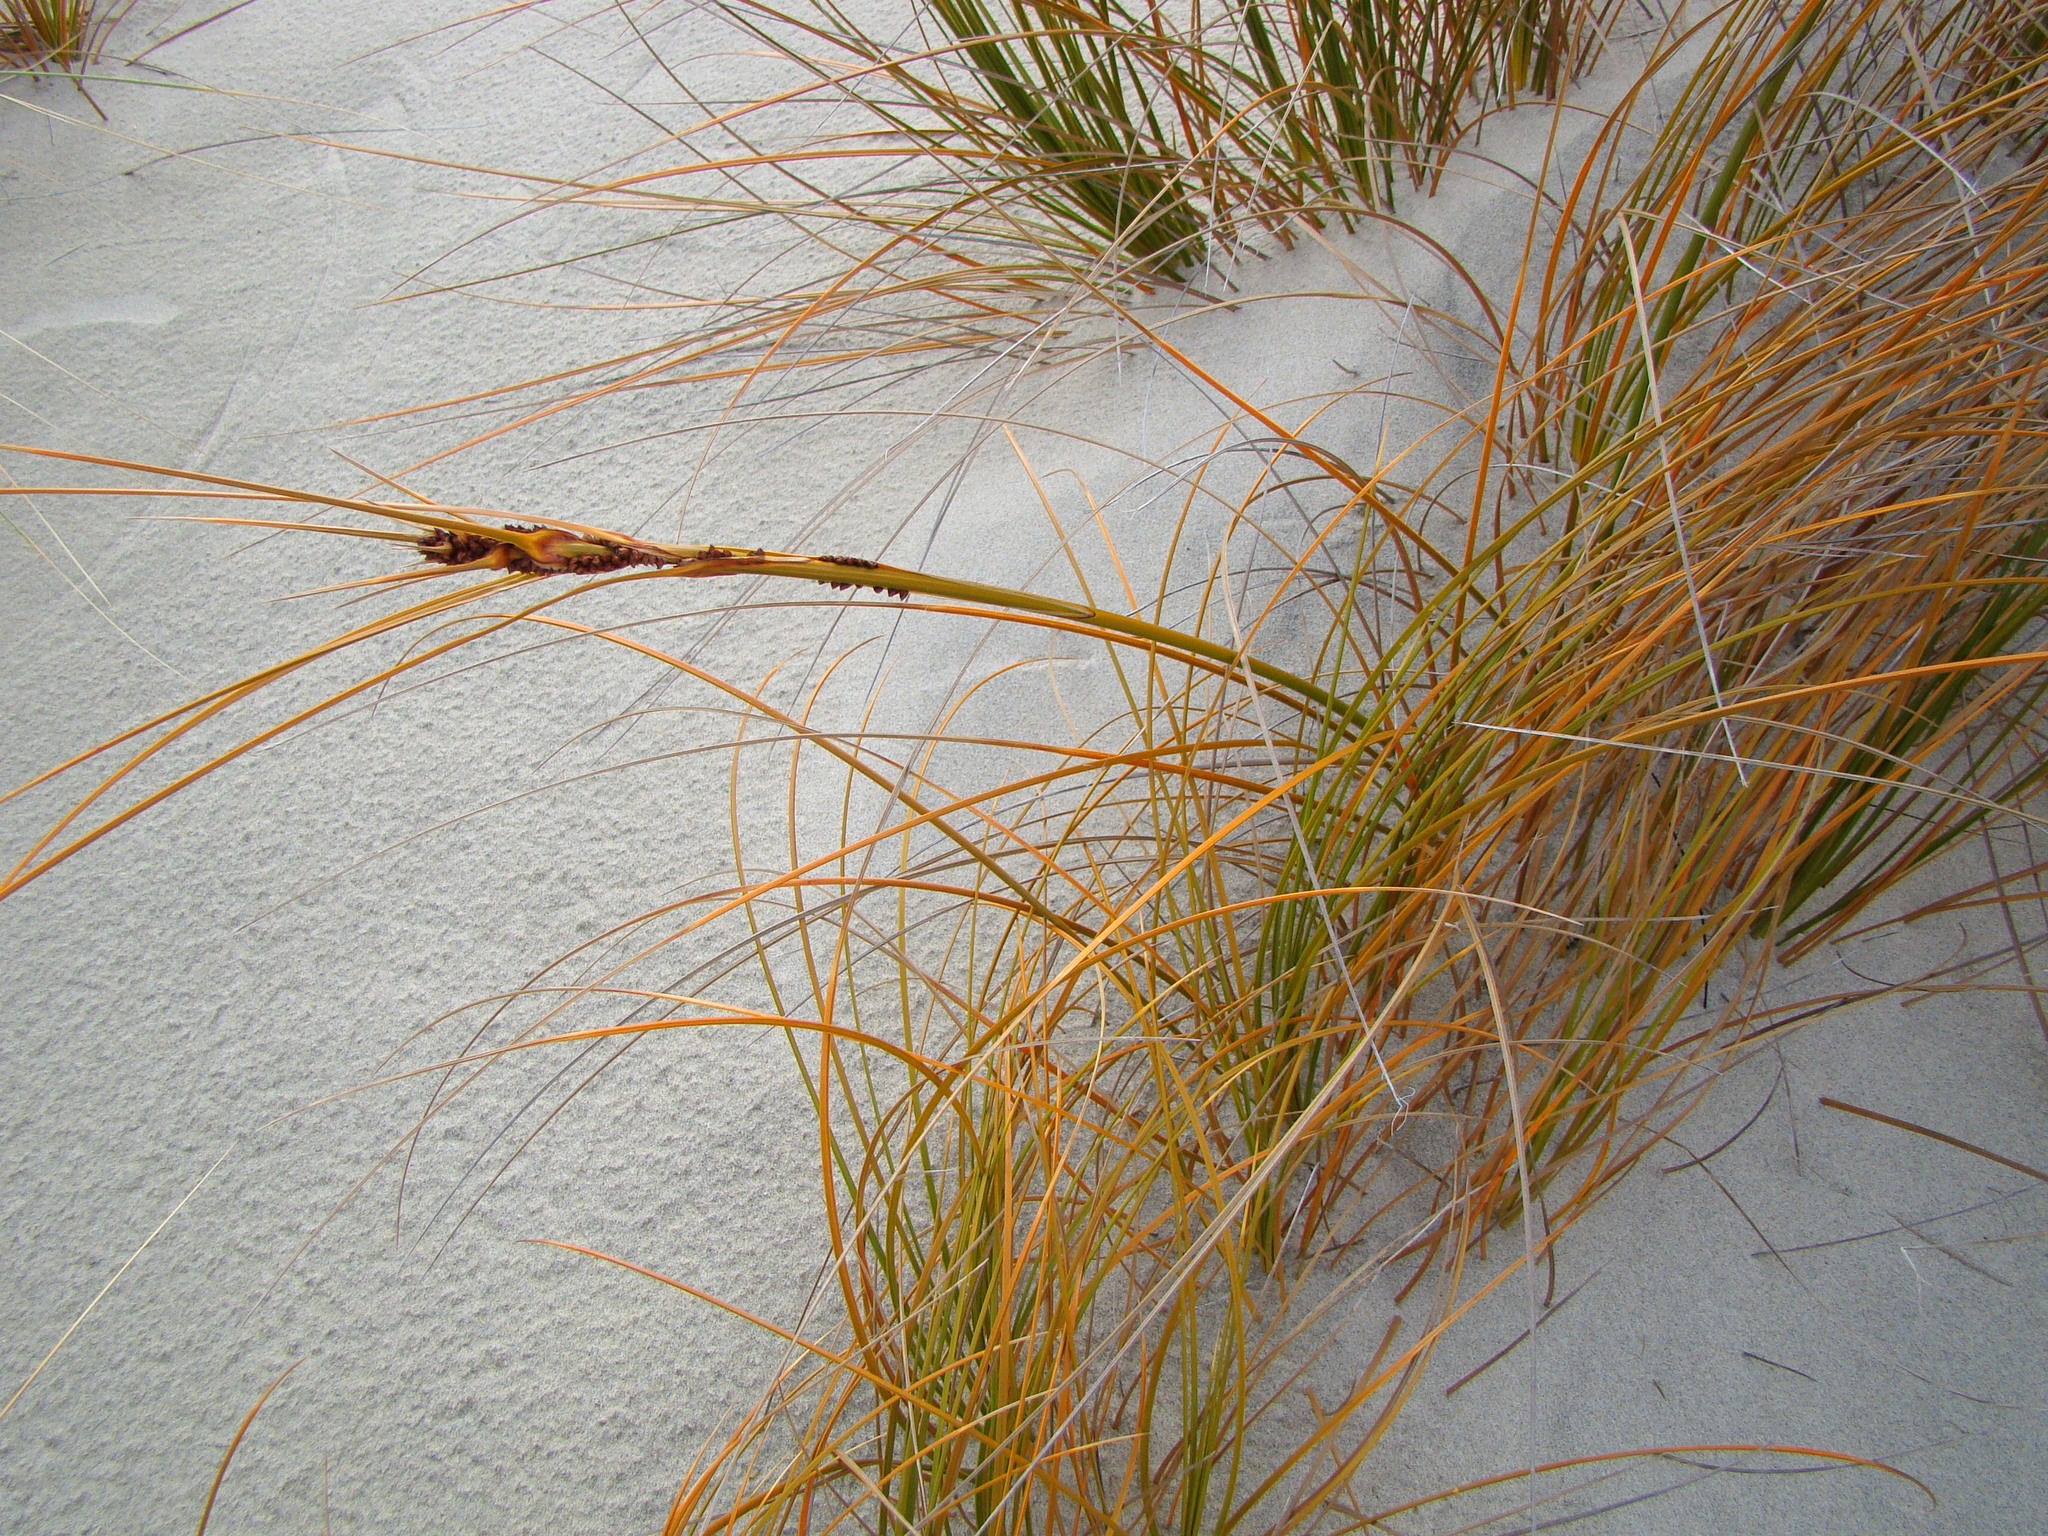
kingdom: Plantae
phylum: Tracheophyta
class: Liliopsida
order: Poales
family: Cyperaceae
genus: Ficinia
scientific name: Ficinia spiralis
